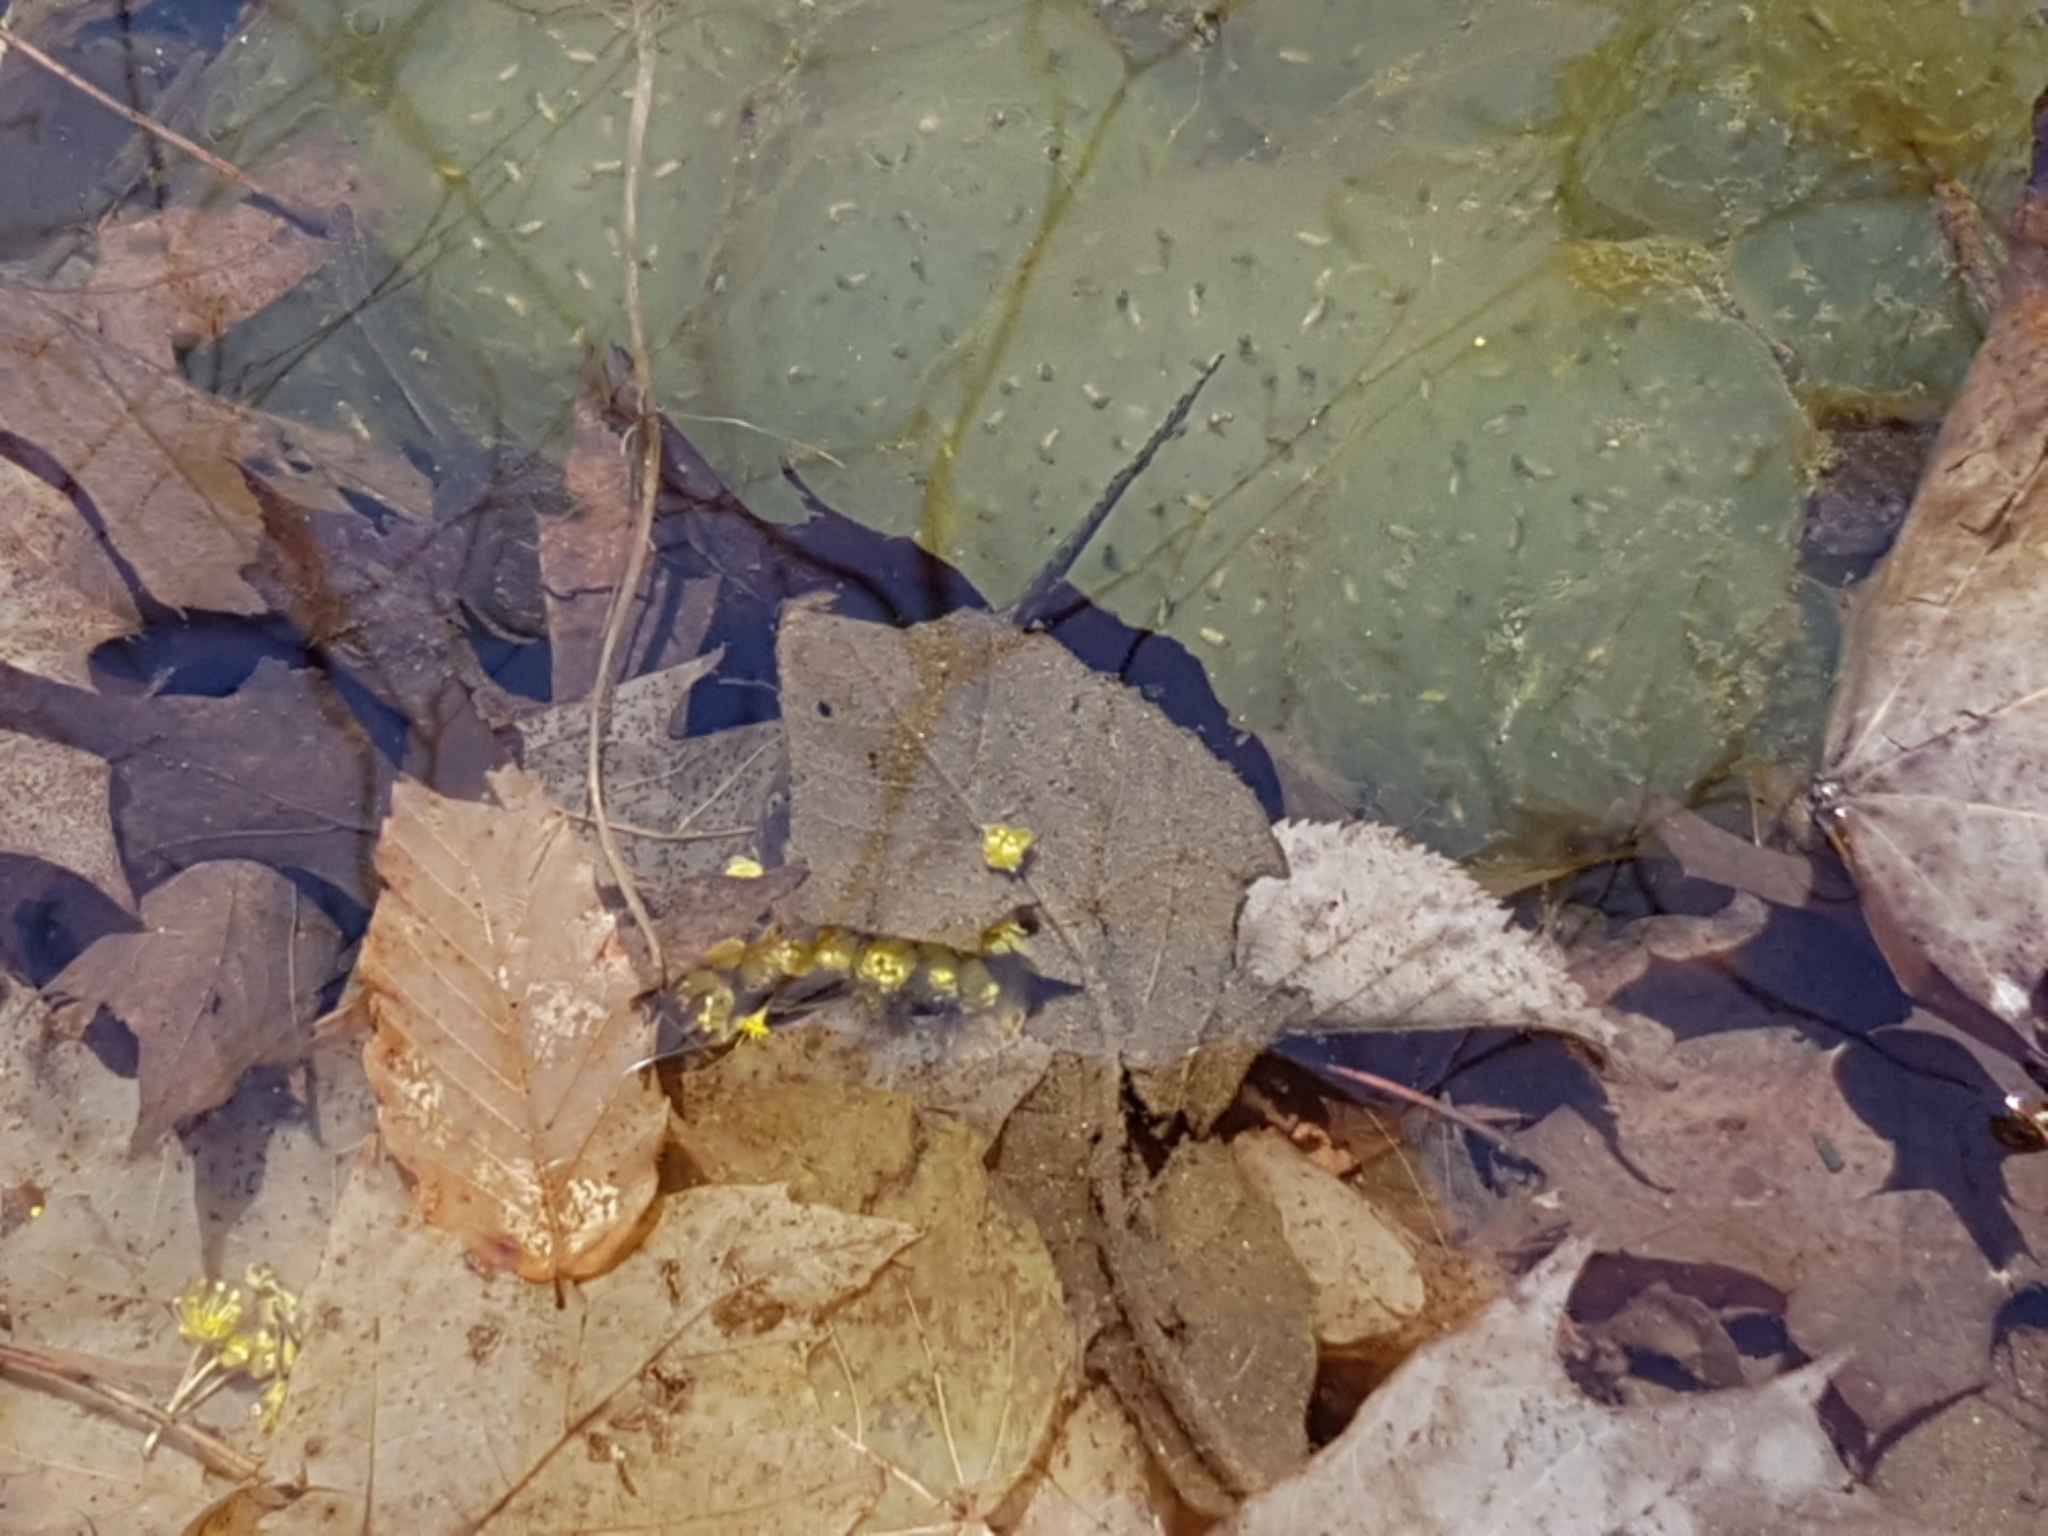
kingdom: Animalia
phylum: Chordata
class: Amphibia
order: Caudata
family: Ambystomatidae
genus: Ambystoma
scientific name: Ambystoma maculatum
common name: Spotted salamander
